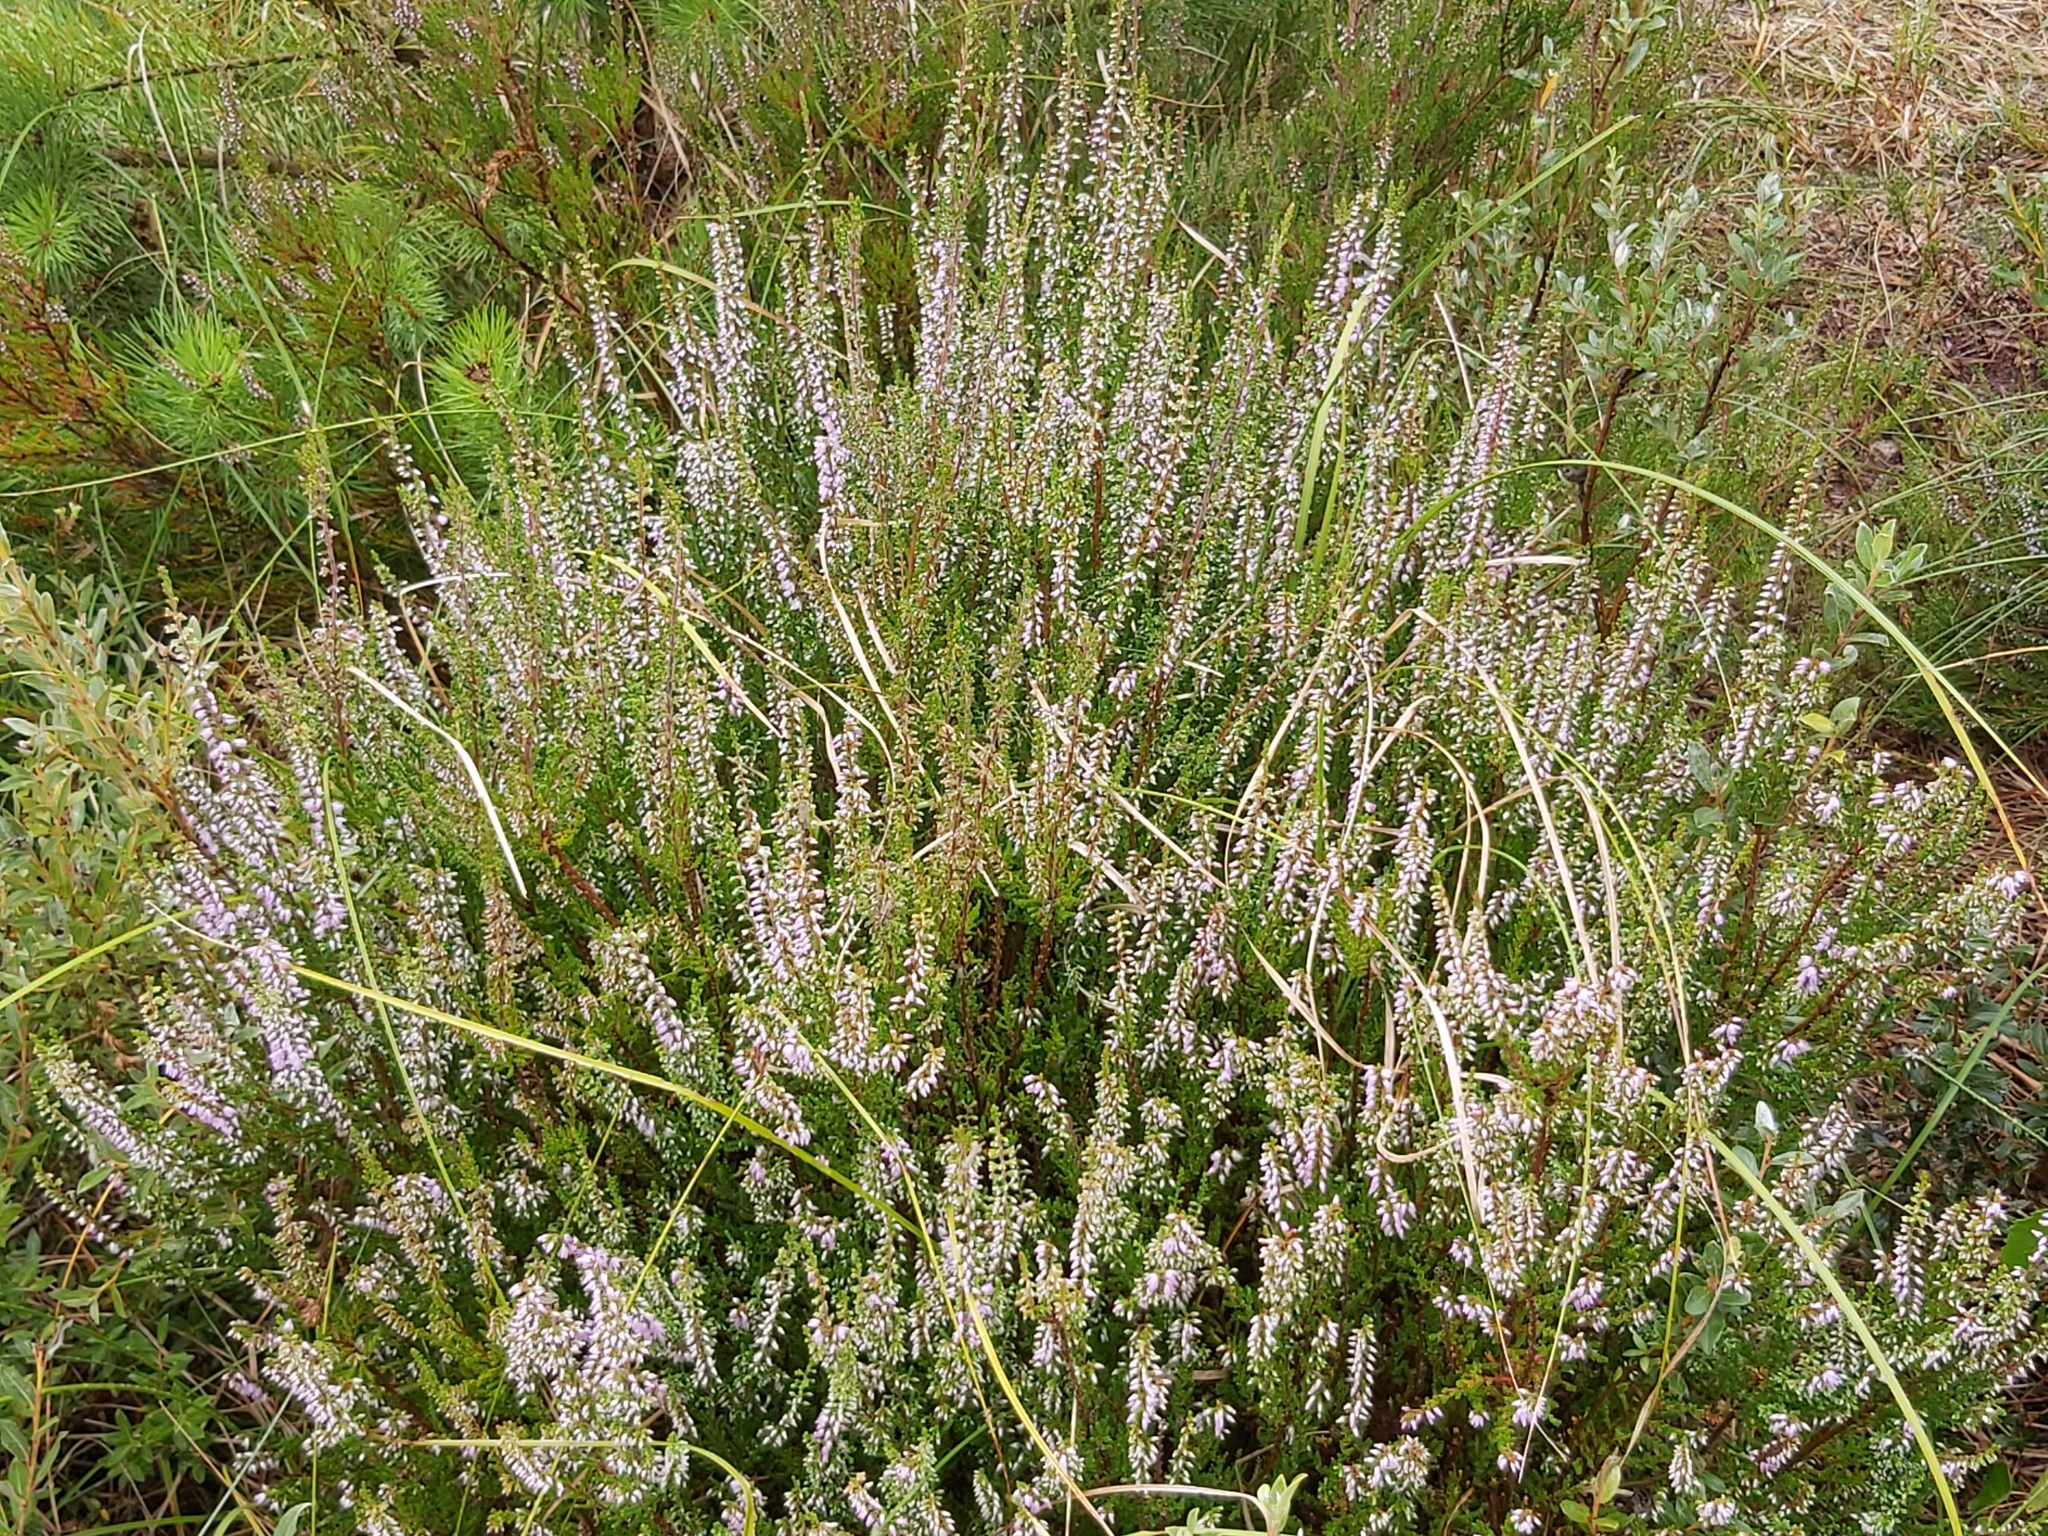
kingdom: Plantae
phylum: Tracheophyta
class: Magnoliopsida
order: Ericales
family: Ericaceae
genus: Calluna
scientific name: Calluna vulgaris
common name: Heather
